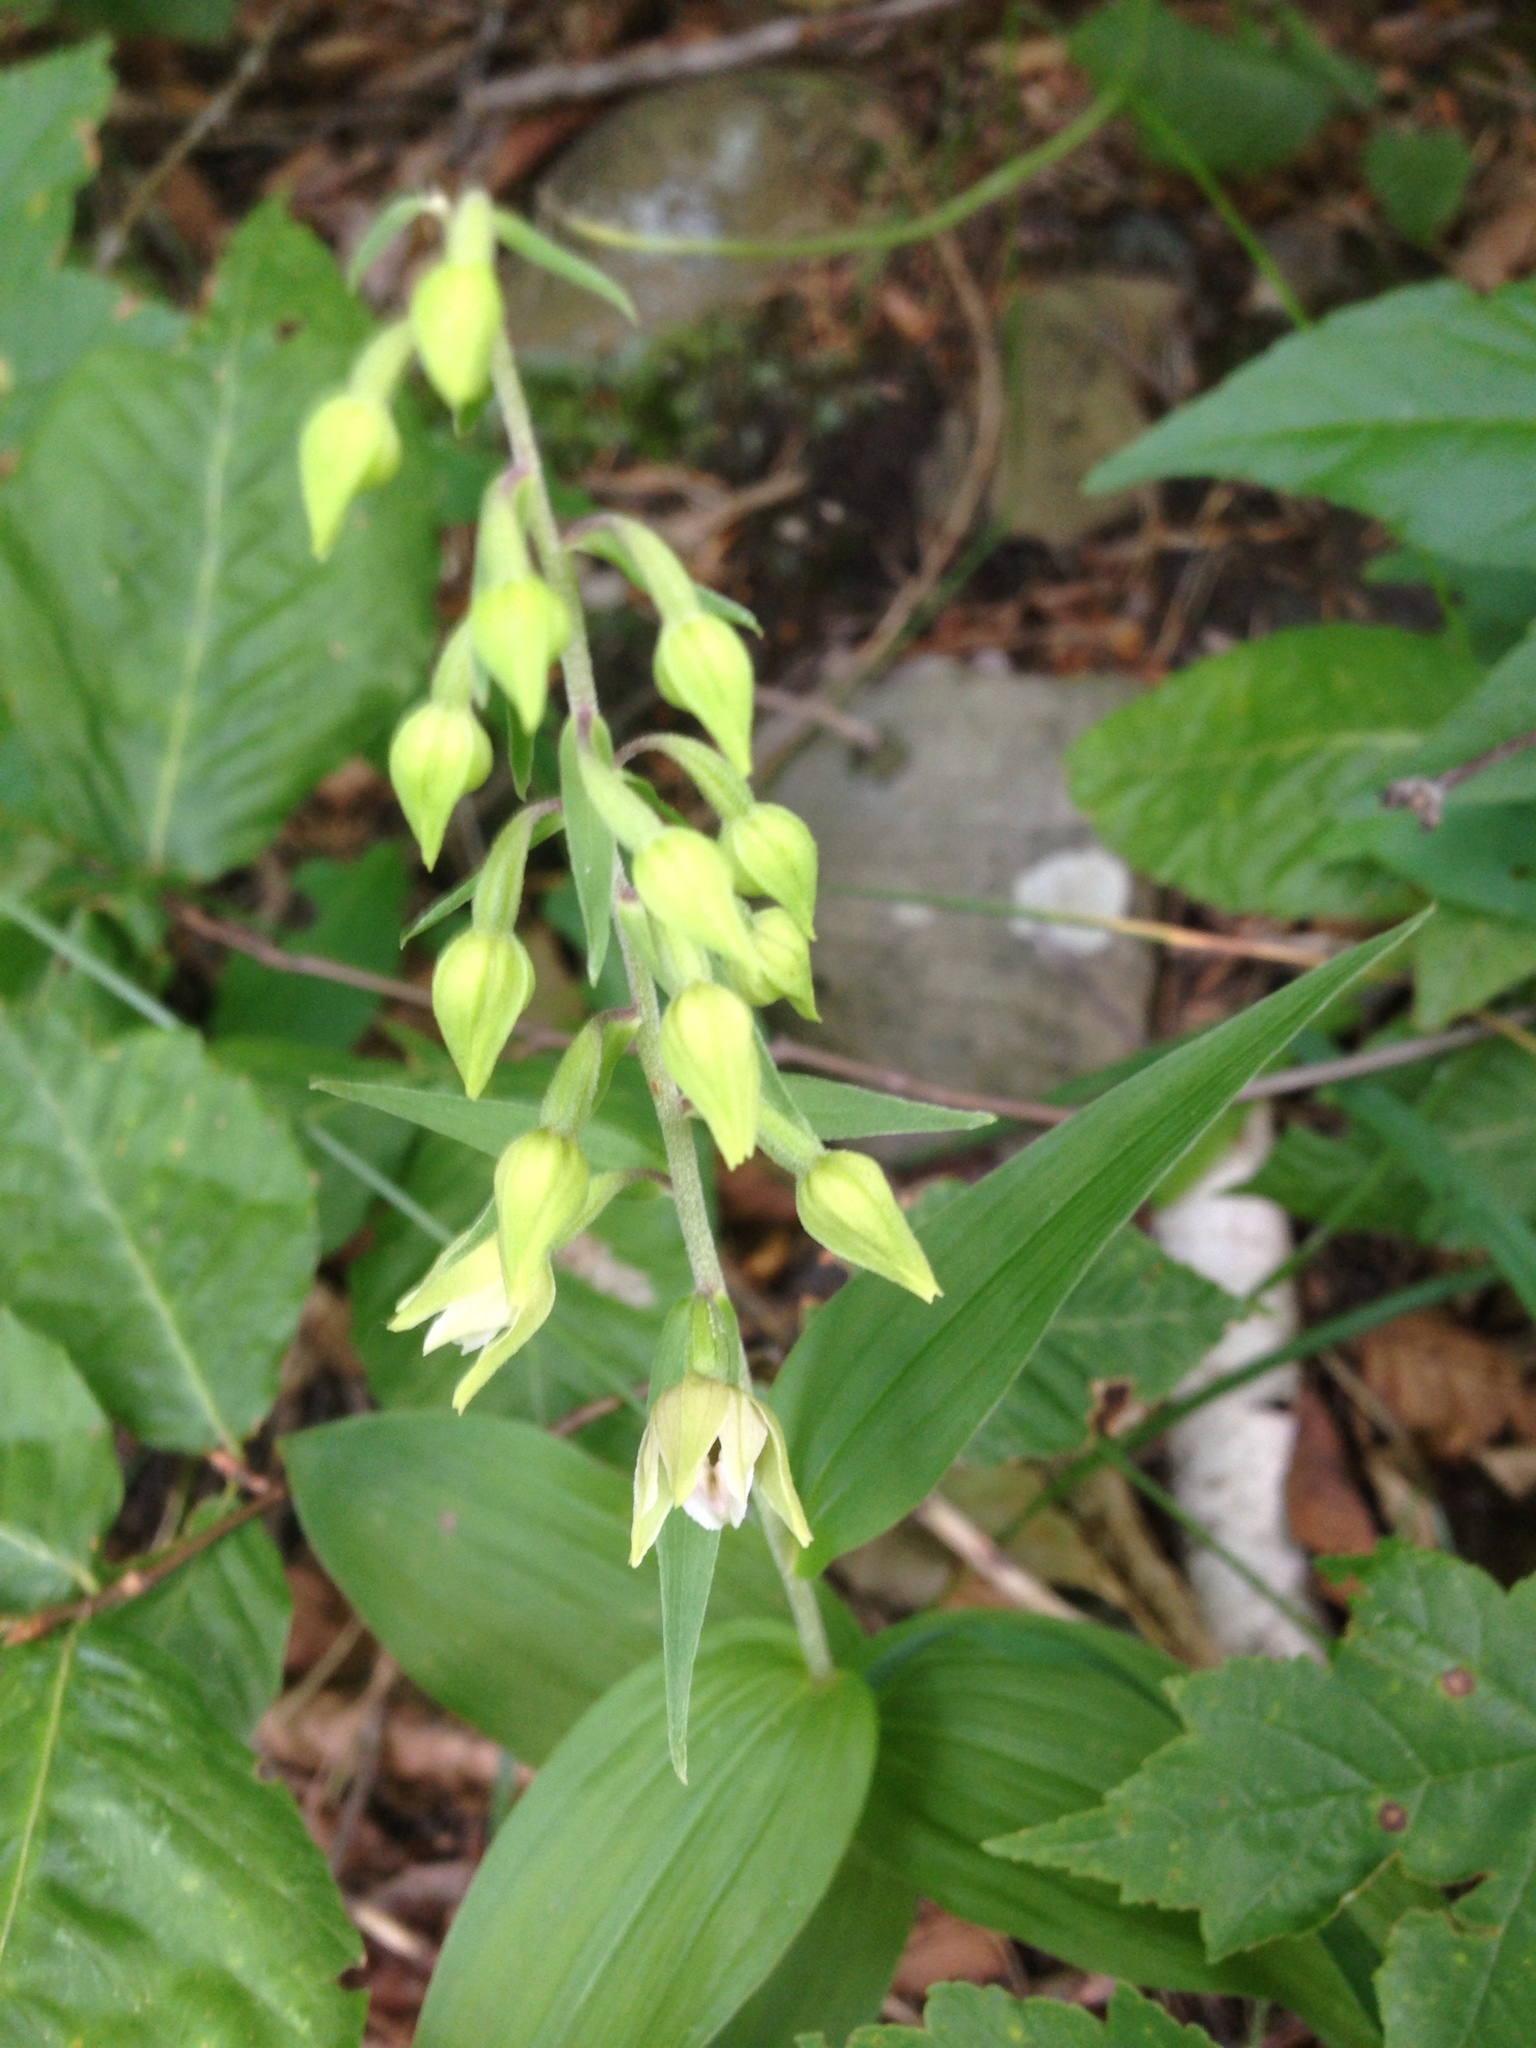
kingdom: Plantae
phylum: Tracheophyta
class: Liliopsida
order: Asparagales
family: Orchidaceae
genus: Epipactis
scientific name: Epipactis helleborine
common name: Broad-leaved helleborine
